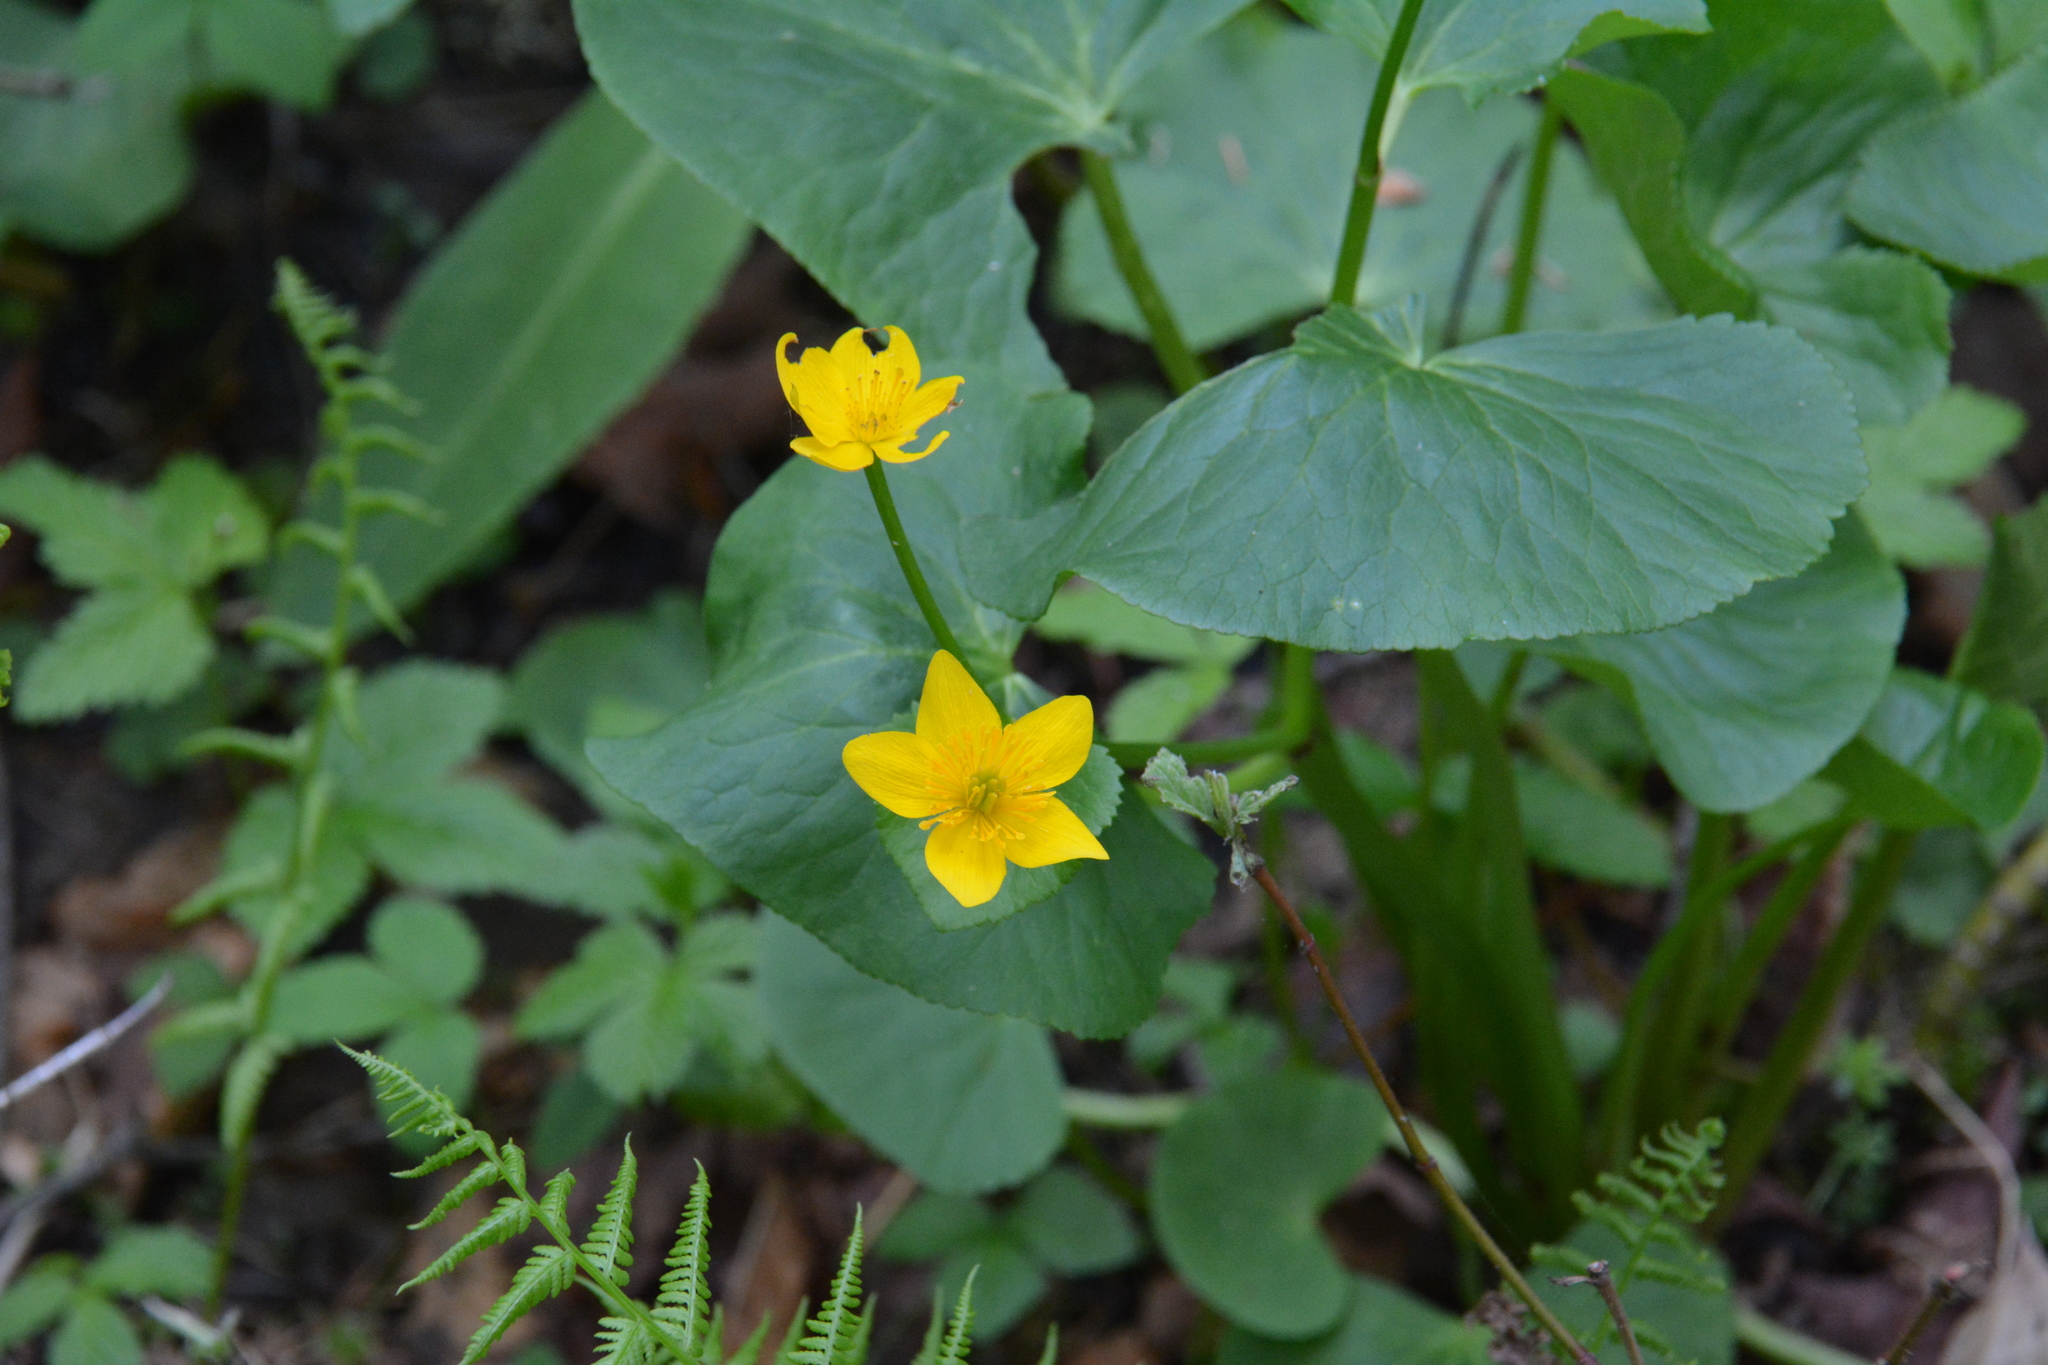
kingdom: Plantae
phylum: Tracheophyta
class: Magnoliopsida
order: Ranunculales
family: Ranunculaceae
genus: Caltha
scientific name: Caltha palustris
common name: Marsh marigold
